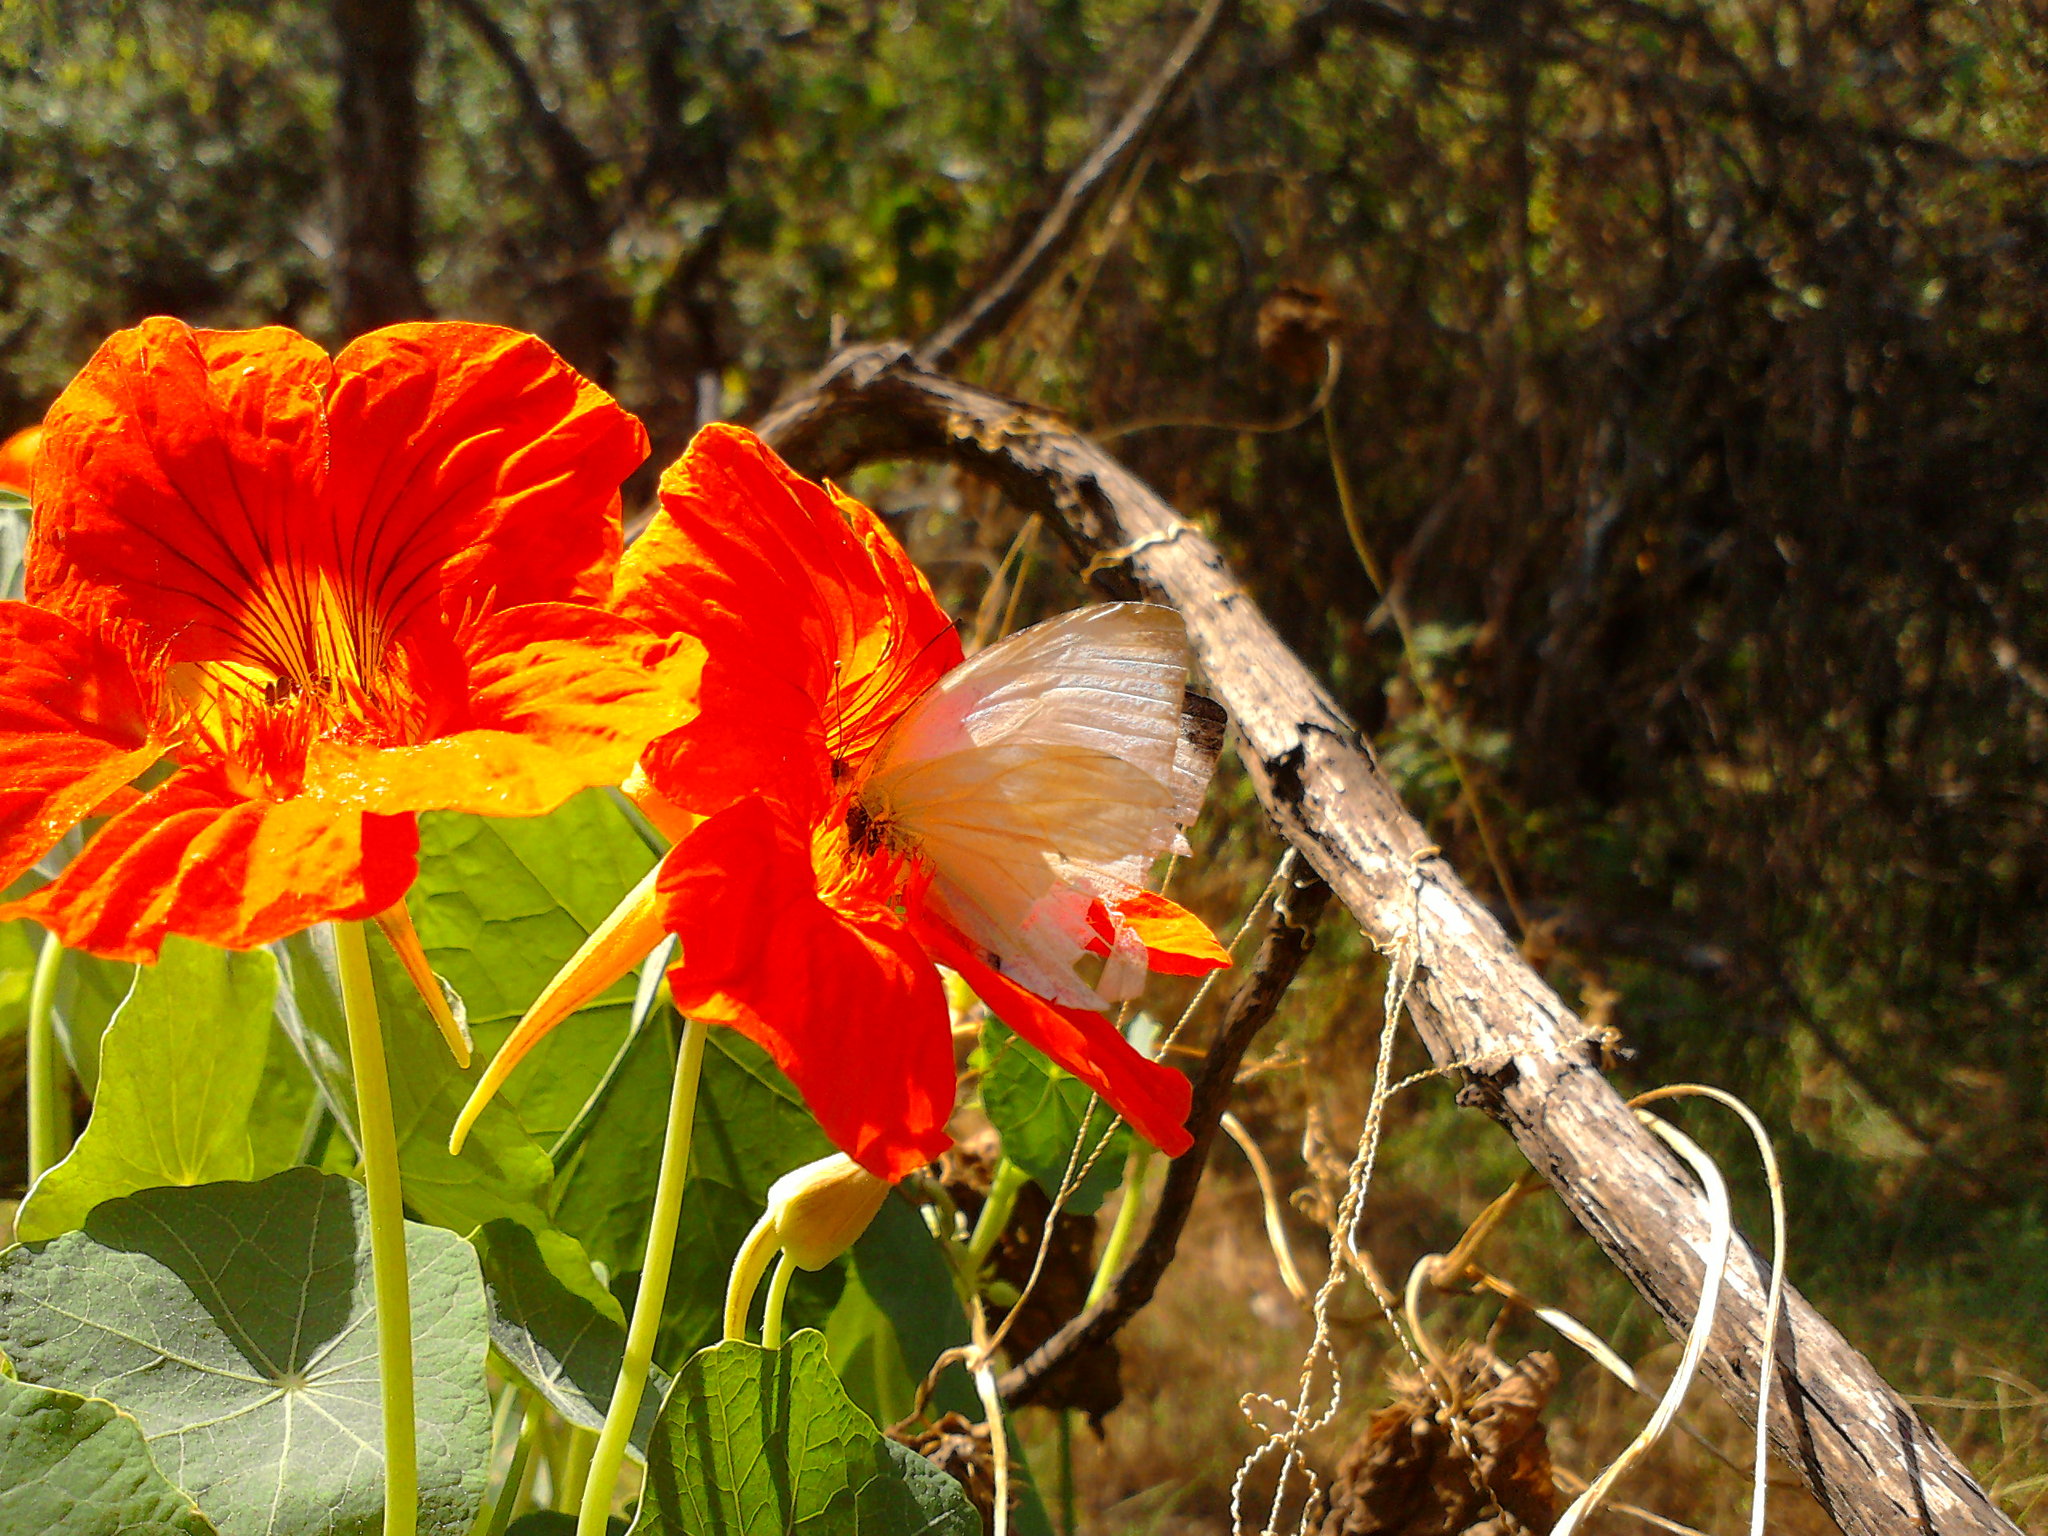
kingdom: Animalia
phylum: Arthropoda
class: Insecta
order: Lepidoptera
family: Pieridae
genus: Leptophobia
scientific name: Leptophobia aripa
